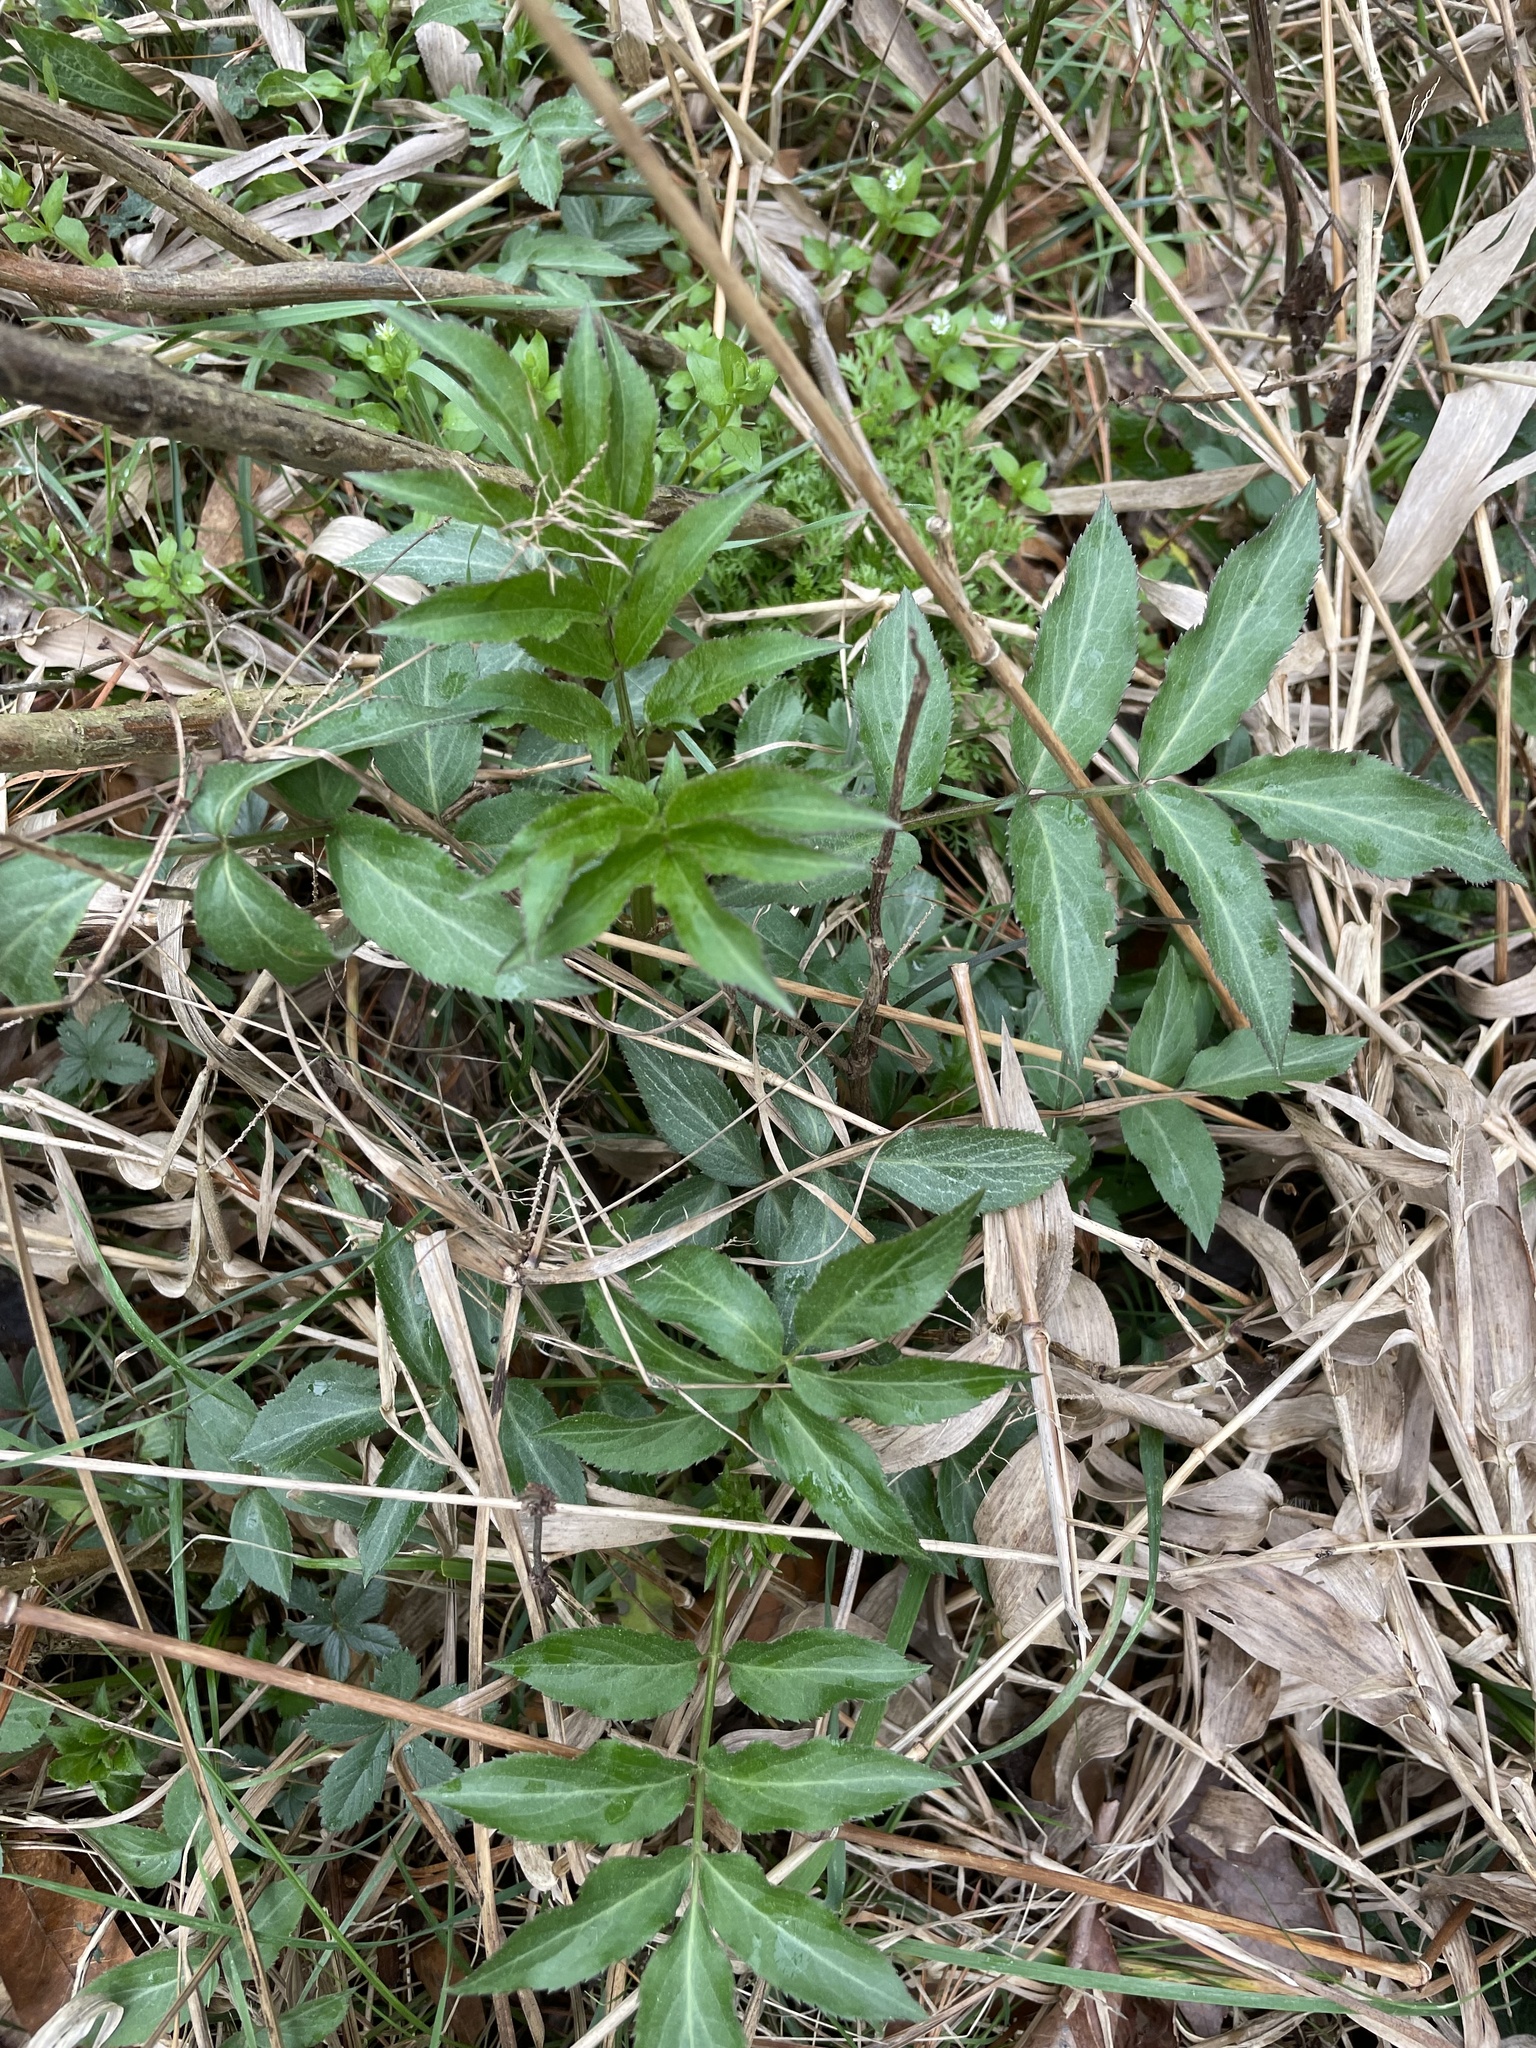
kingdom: Plantae
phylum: Tracheophyta
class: Magnoliopsida
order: Dipsacales
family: Viburnaceae
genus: Sambucus
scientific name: Sambucus canadensis
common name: American elder
